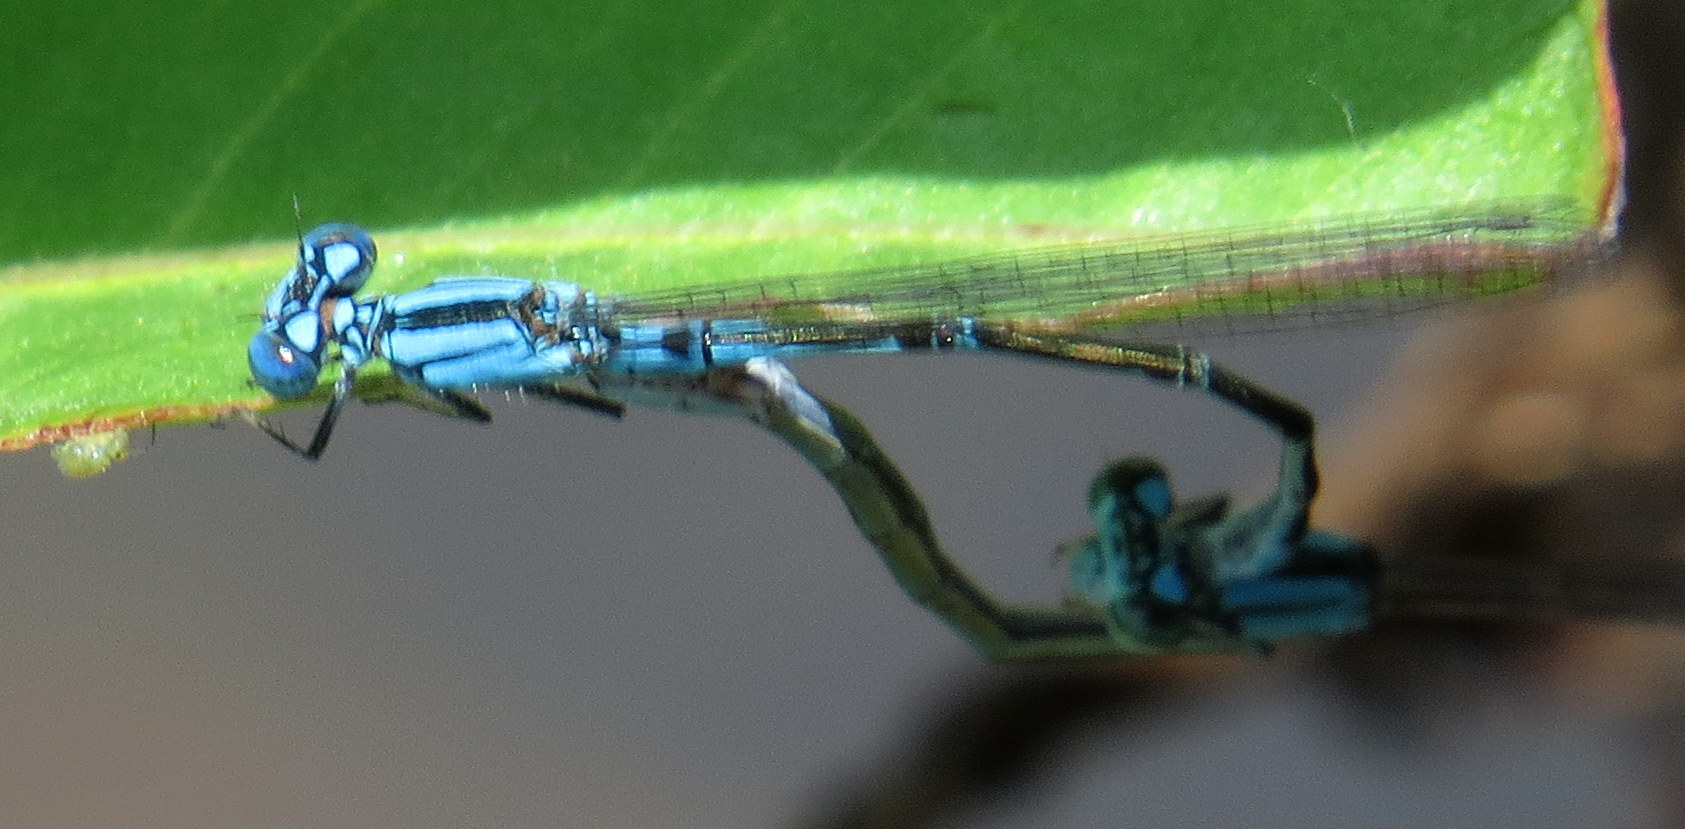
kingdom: Animalia
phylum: Arthropoda
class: Insecta
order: Odonata
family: Coenagrionidae
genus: Enallagma
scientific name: Enallagma traviatum
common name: Slender bluet
